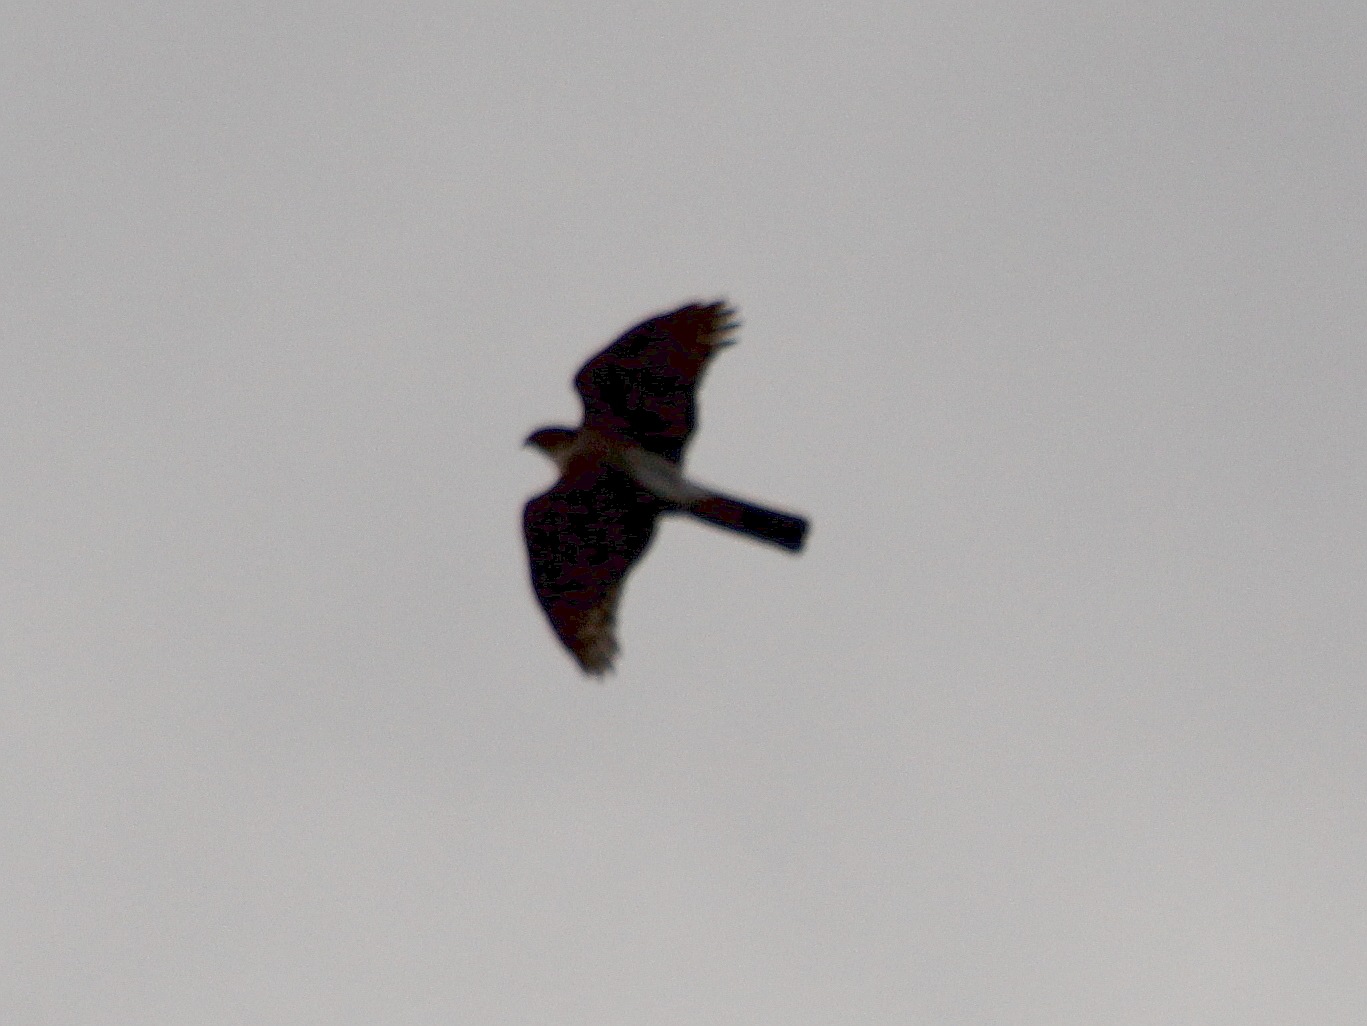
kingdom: Animalia
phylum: Chordata
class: Aves
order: Accipitriformes
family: Accipitridae
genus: Accipiter
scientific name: Accipiter nisus
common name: Eurasian sparrowhawk
